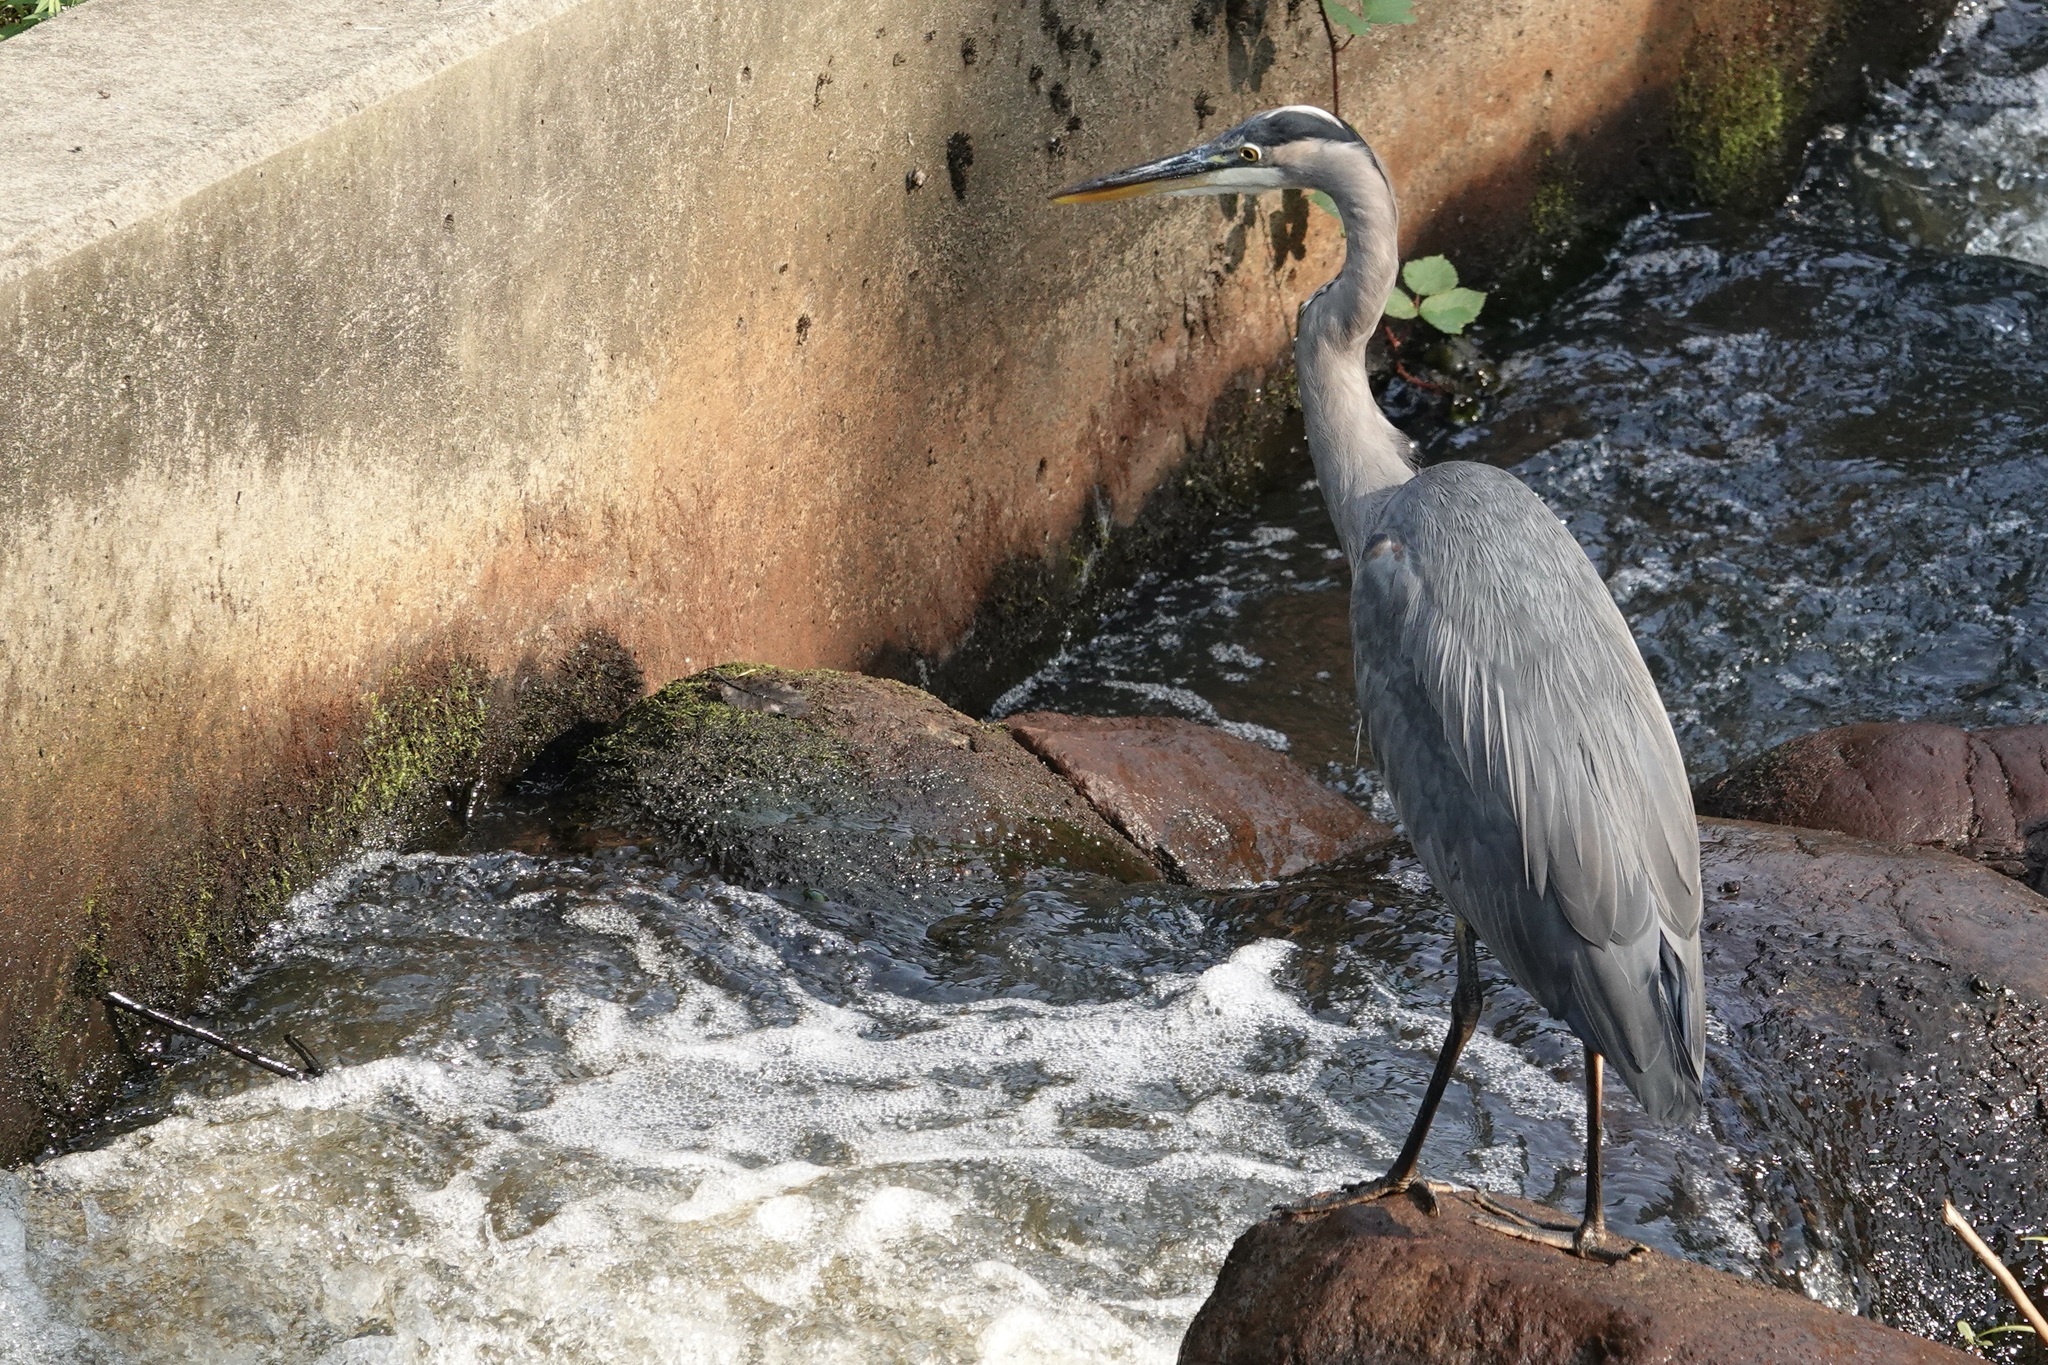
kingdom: Animalia
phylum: Chordata
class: Aves
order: Pelecaniformes
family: Ardeidae
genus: Ardea
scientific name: Ardea herodias
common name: Great blue heron
